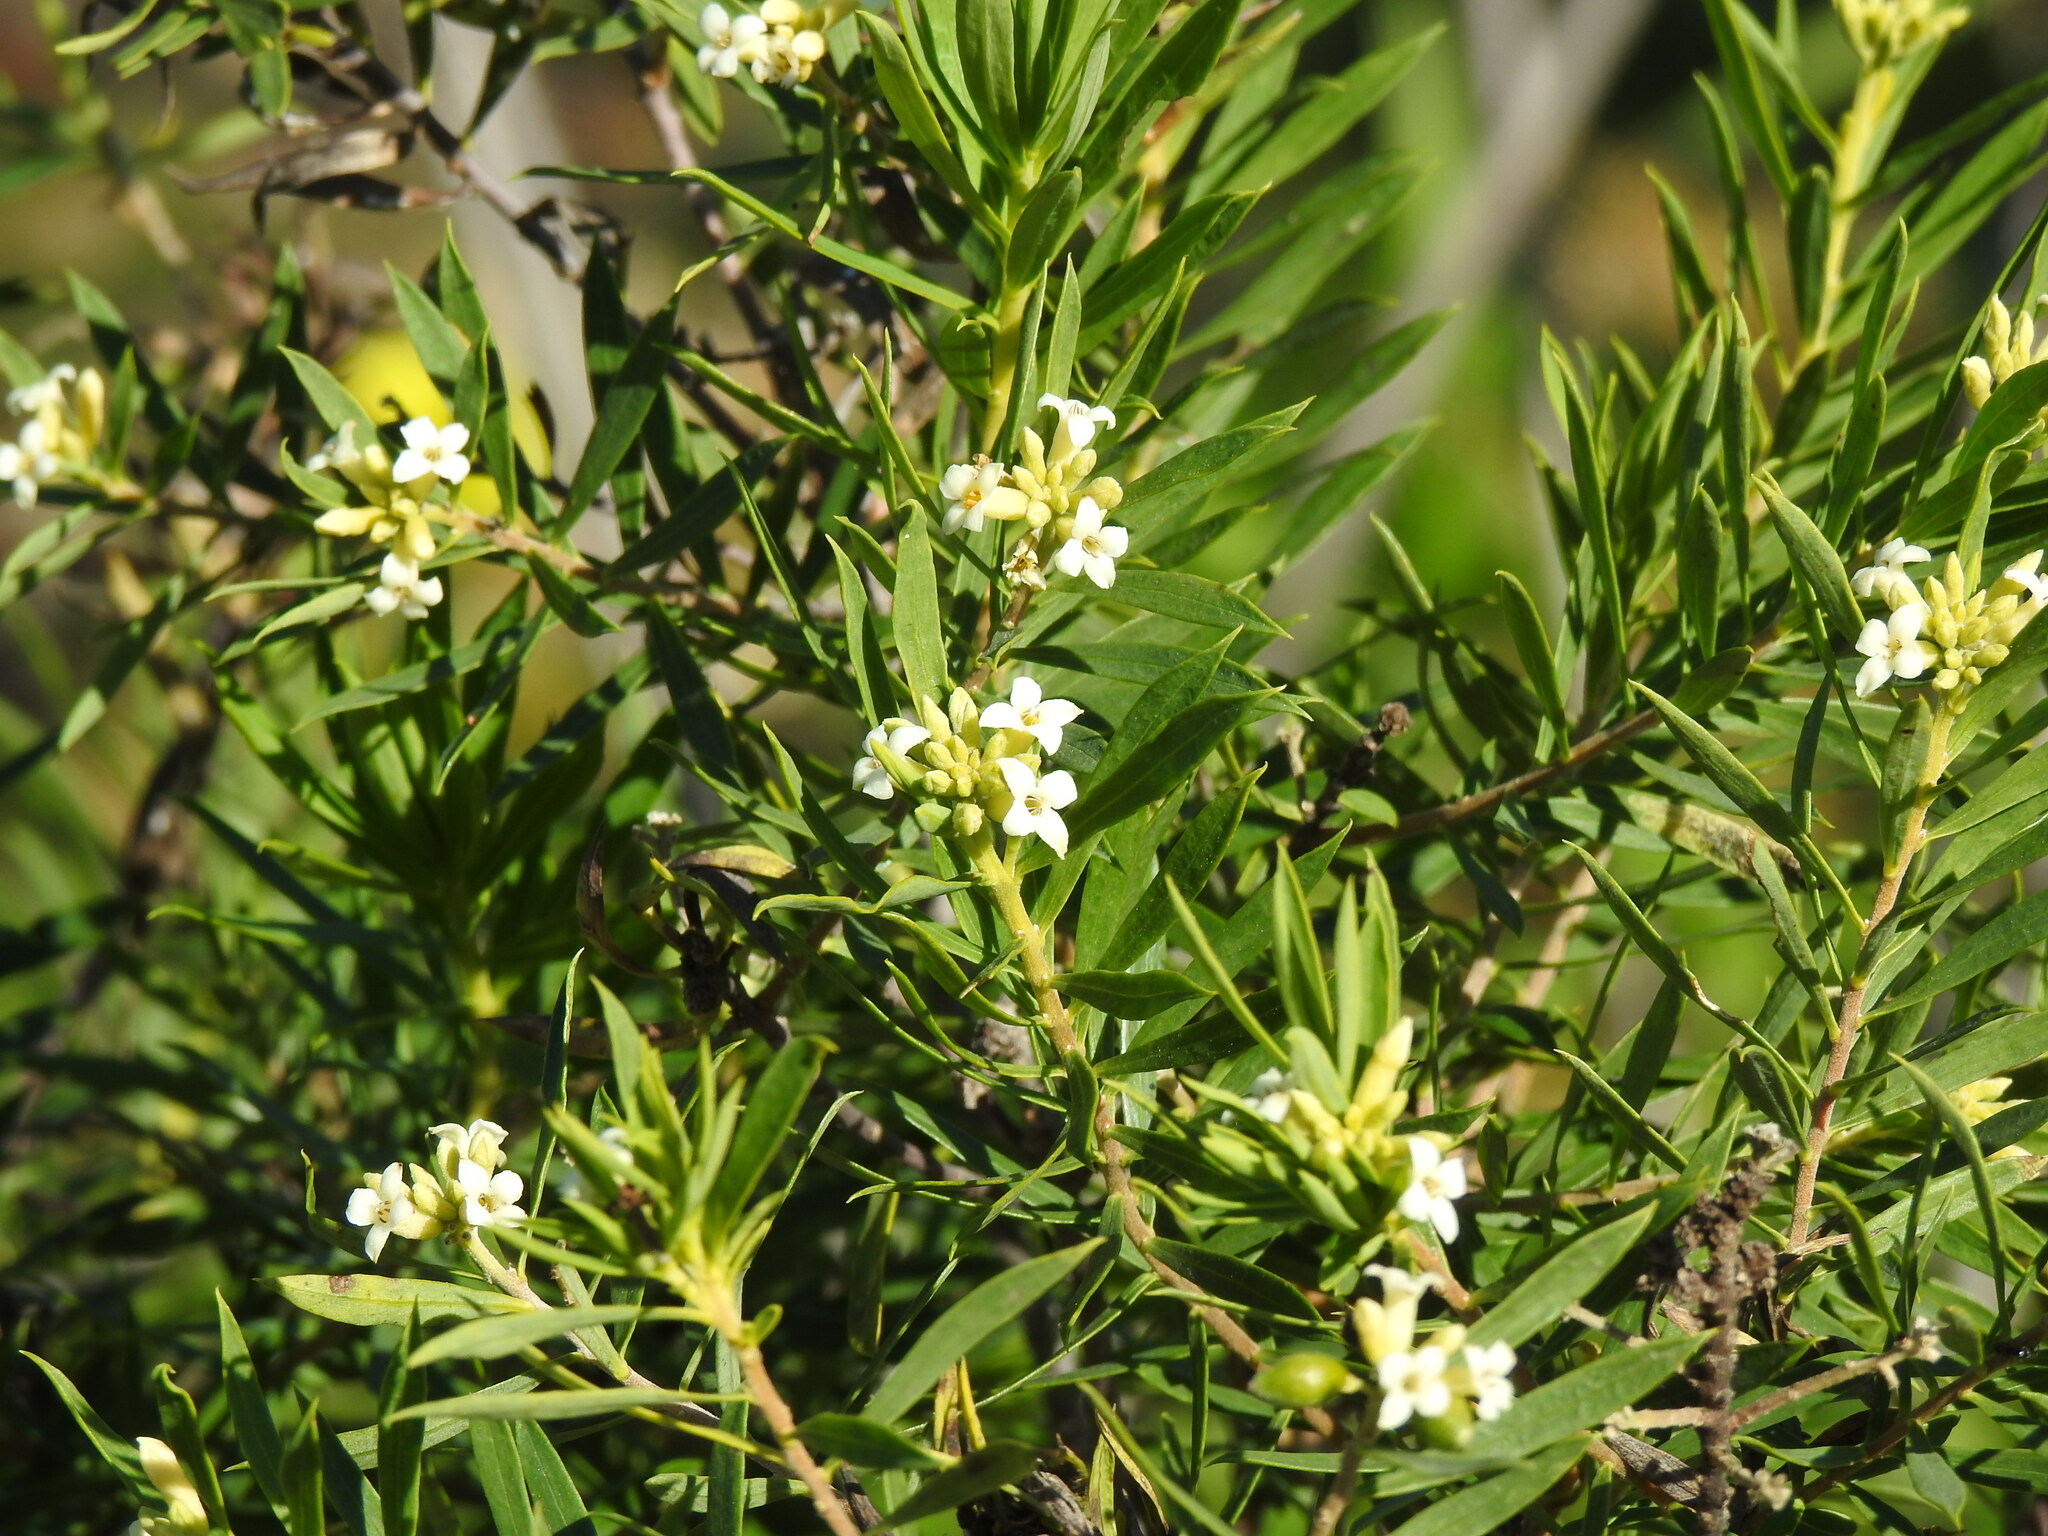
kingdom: Plantae
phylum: Tracheophyta
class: Magnoliopsida
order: Malvales
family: Thymelaeaceae
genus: Daphne
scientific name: Daphne gnidium
